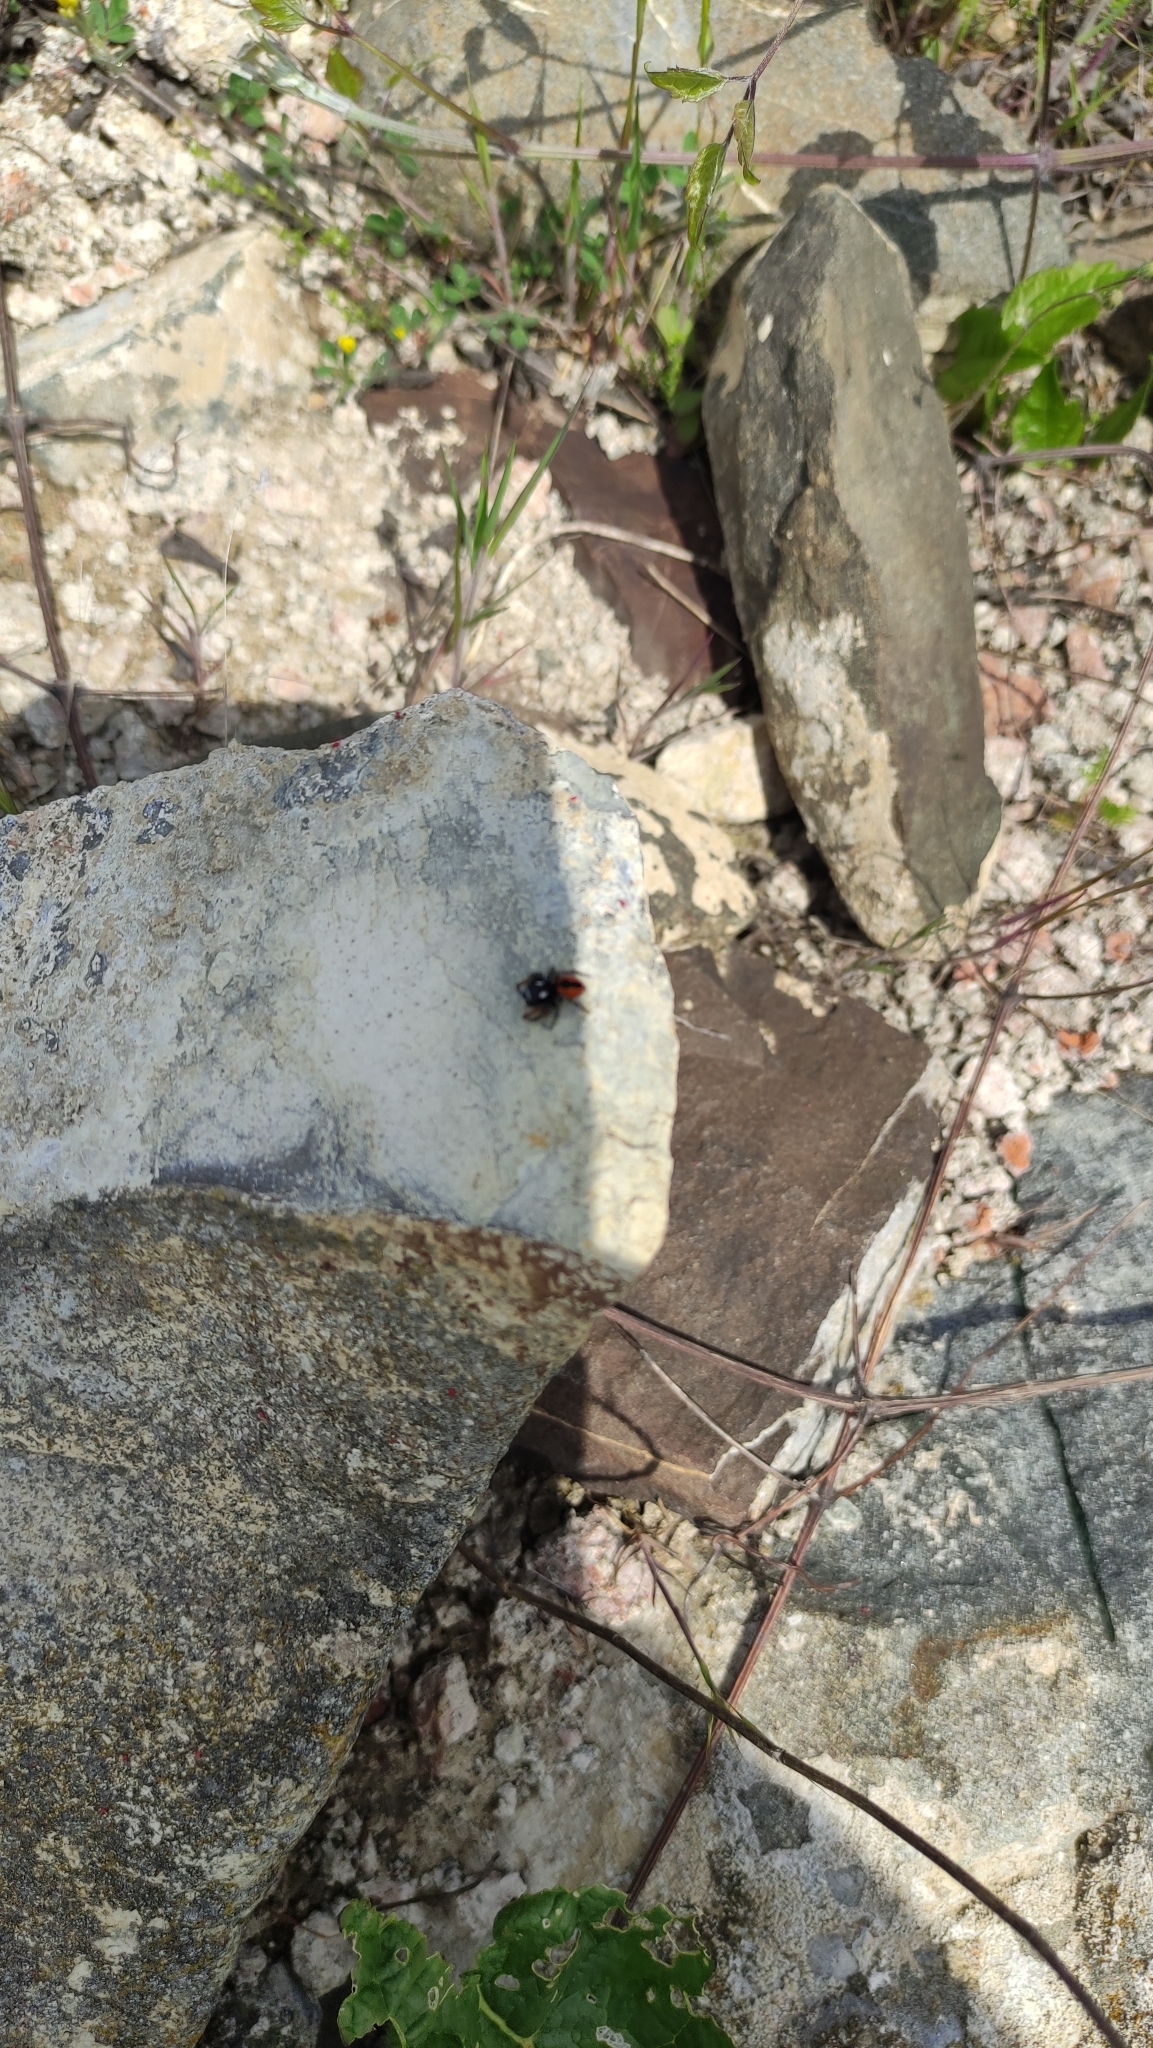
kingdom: Animalia
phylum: Arthropoda
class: Arachnida
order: Araneae
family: Salticidae
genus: Philaeus
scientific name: Philaeus chrysops
